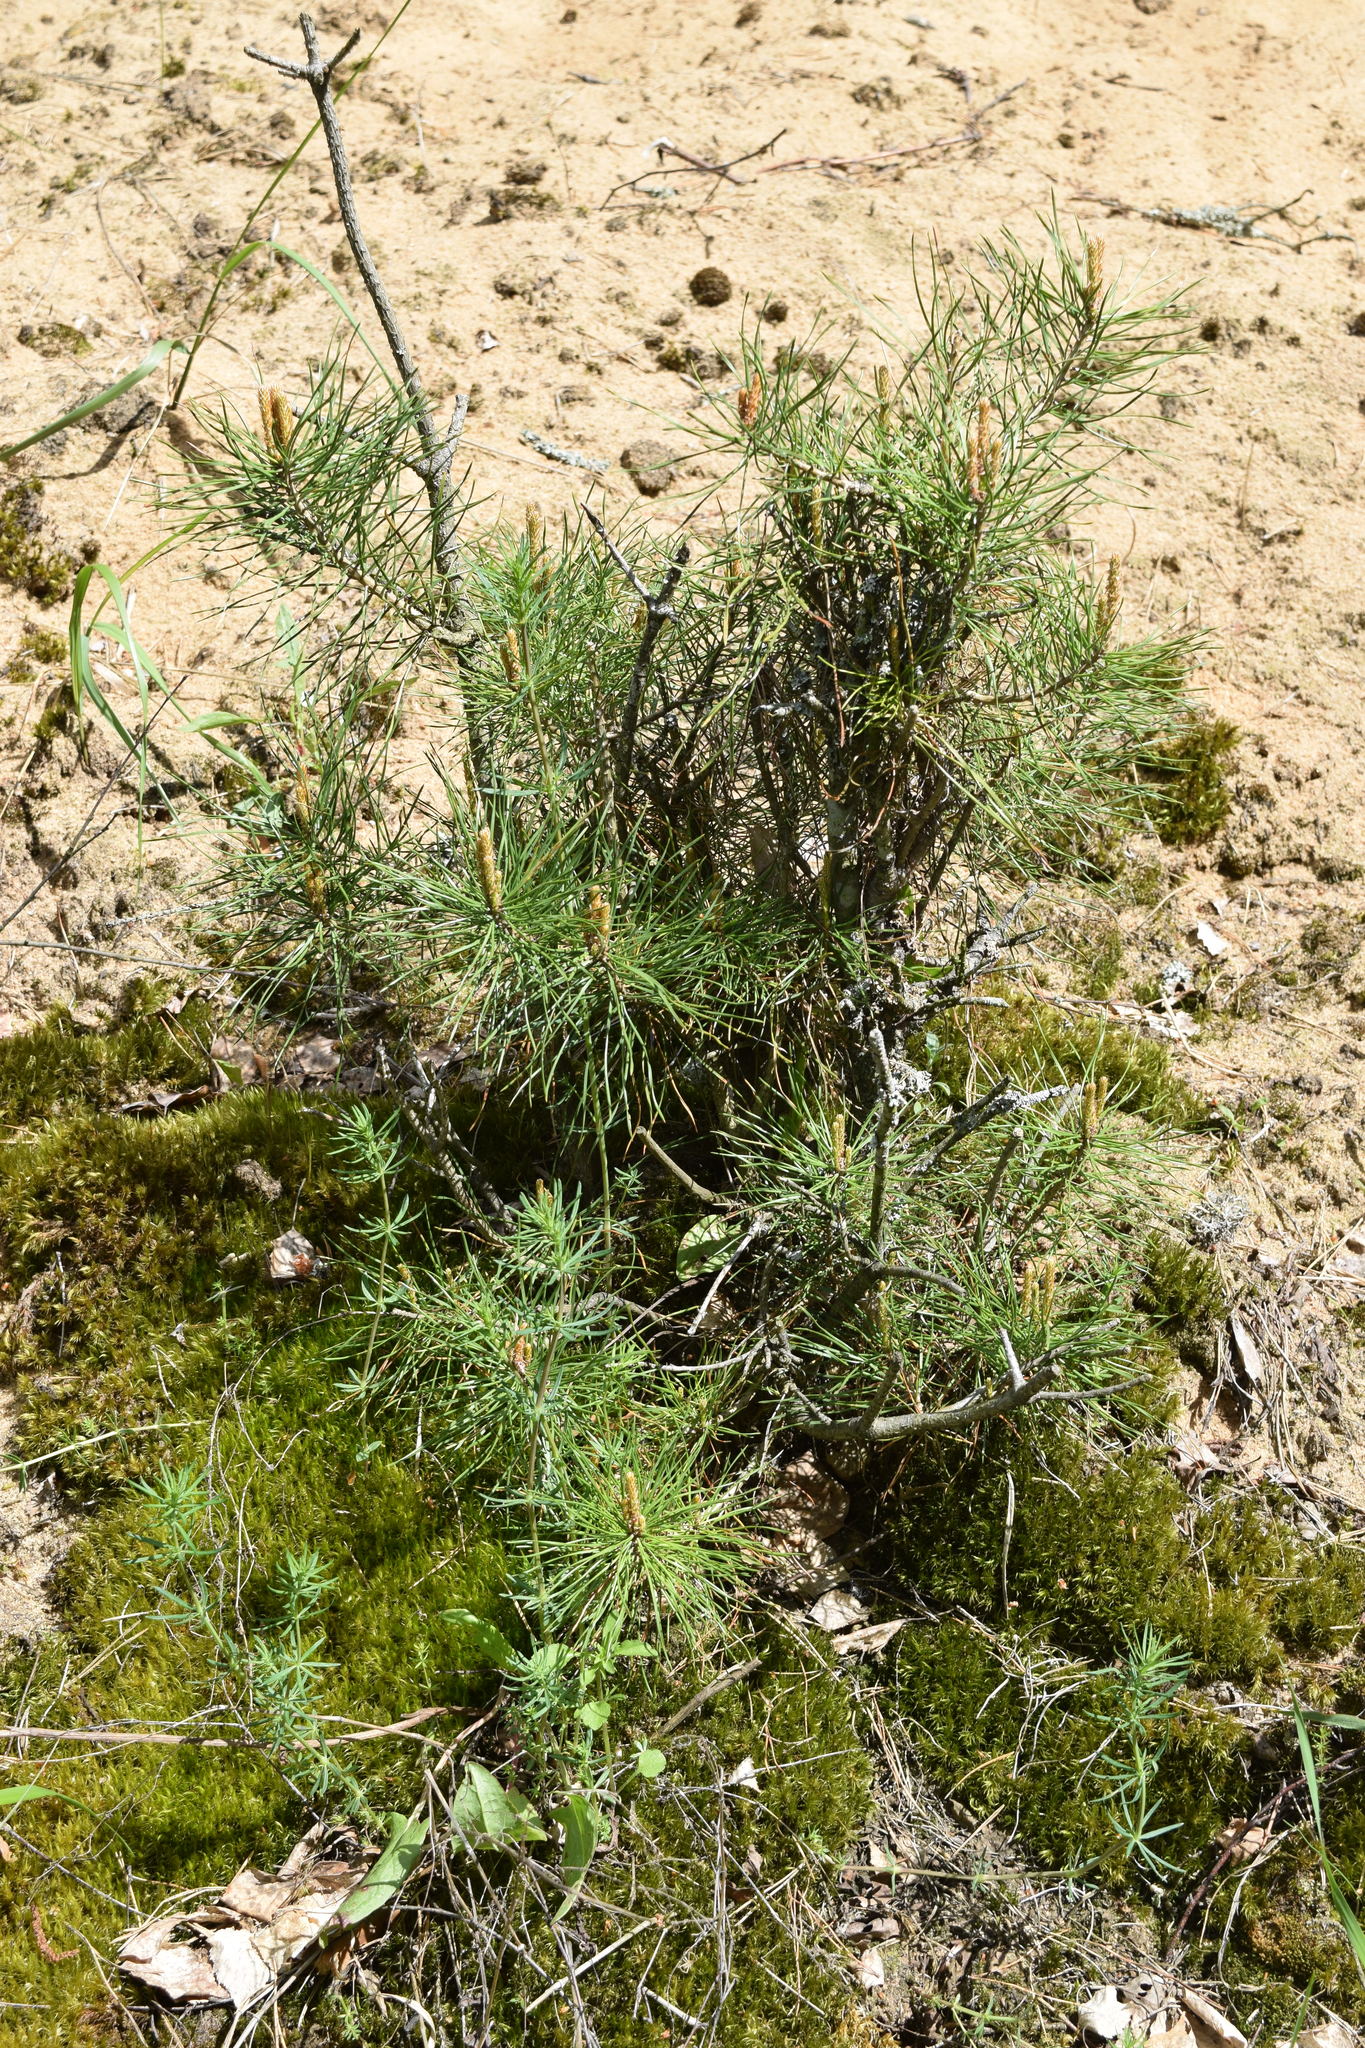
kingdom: Plantae
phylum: Tracheophyta
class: Pinopsida
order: Pinales
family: Pinaceae
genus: Pinus
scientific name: Pinus sylvestris
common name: Scots pine
